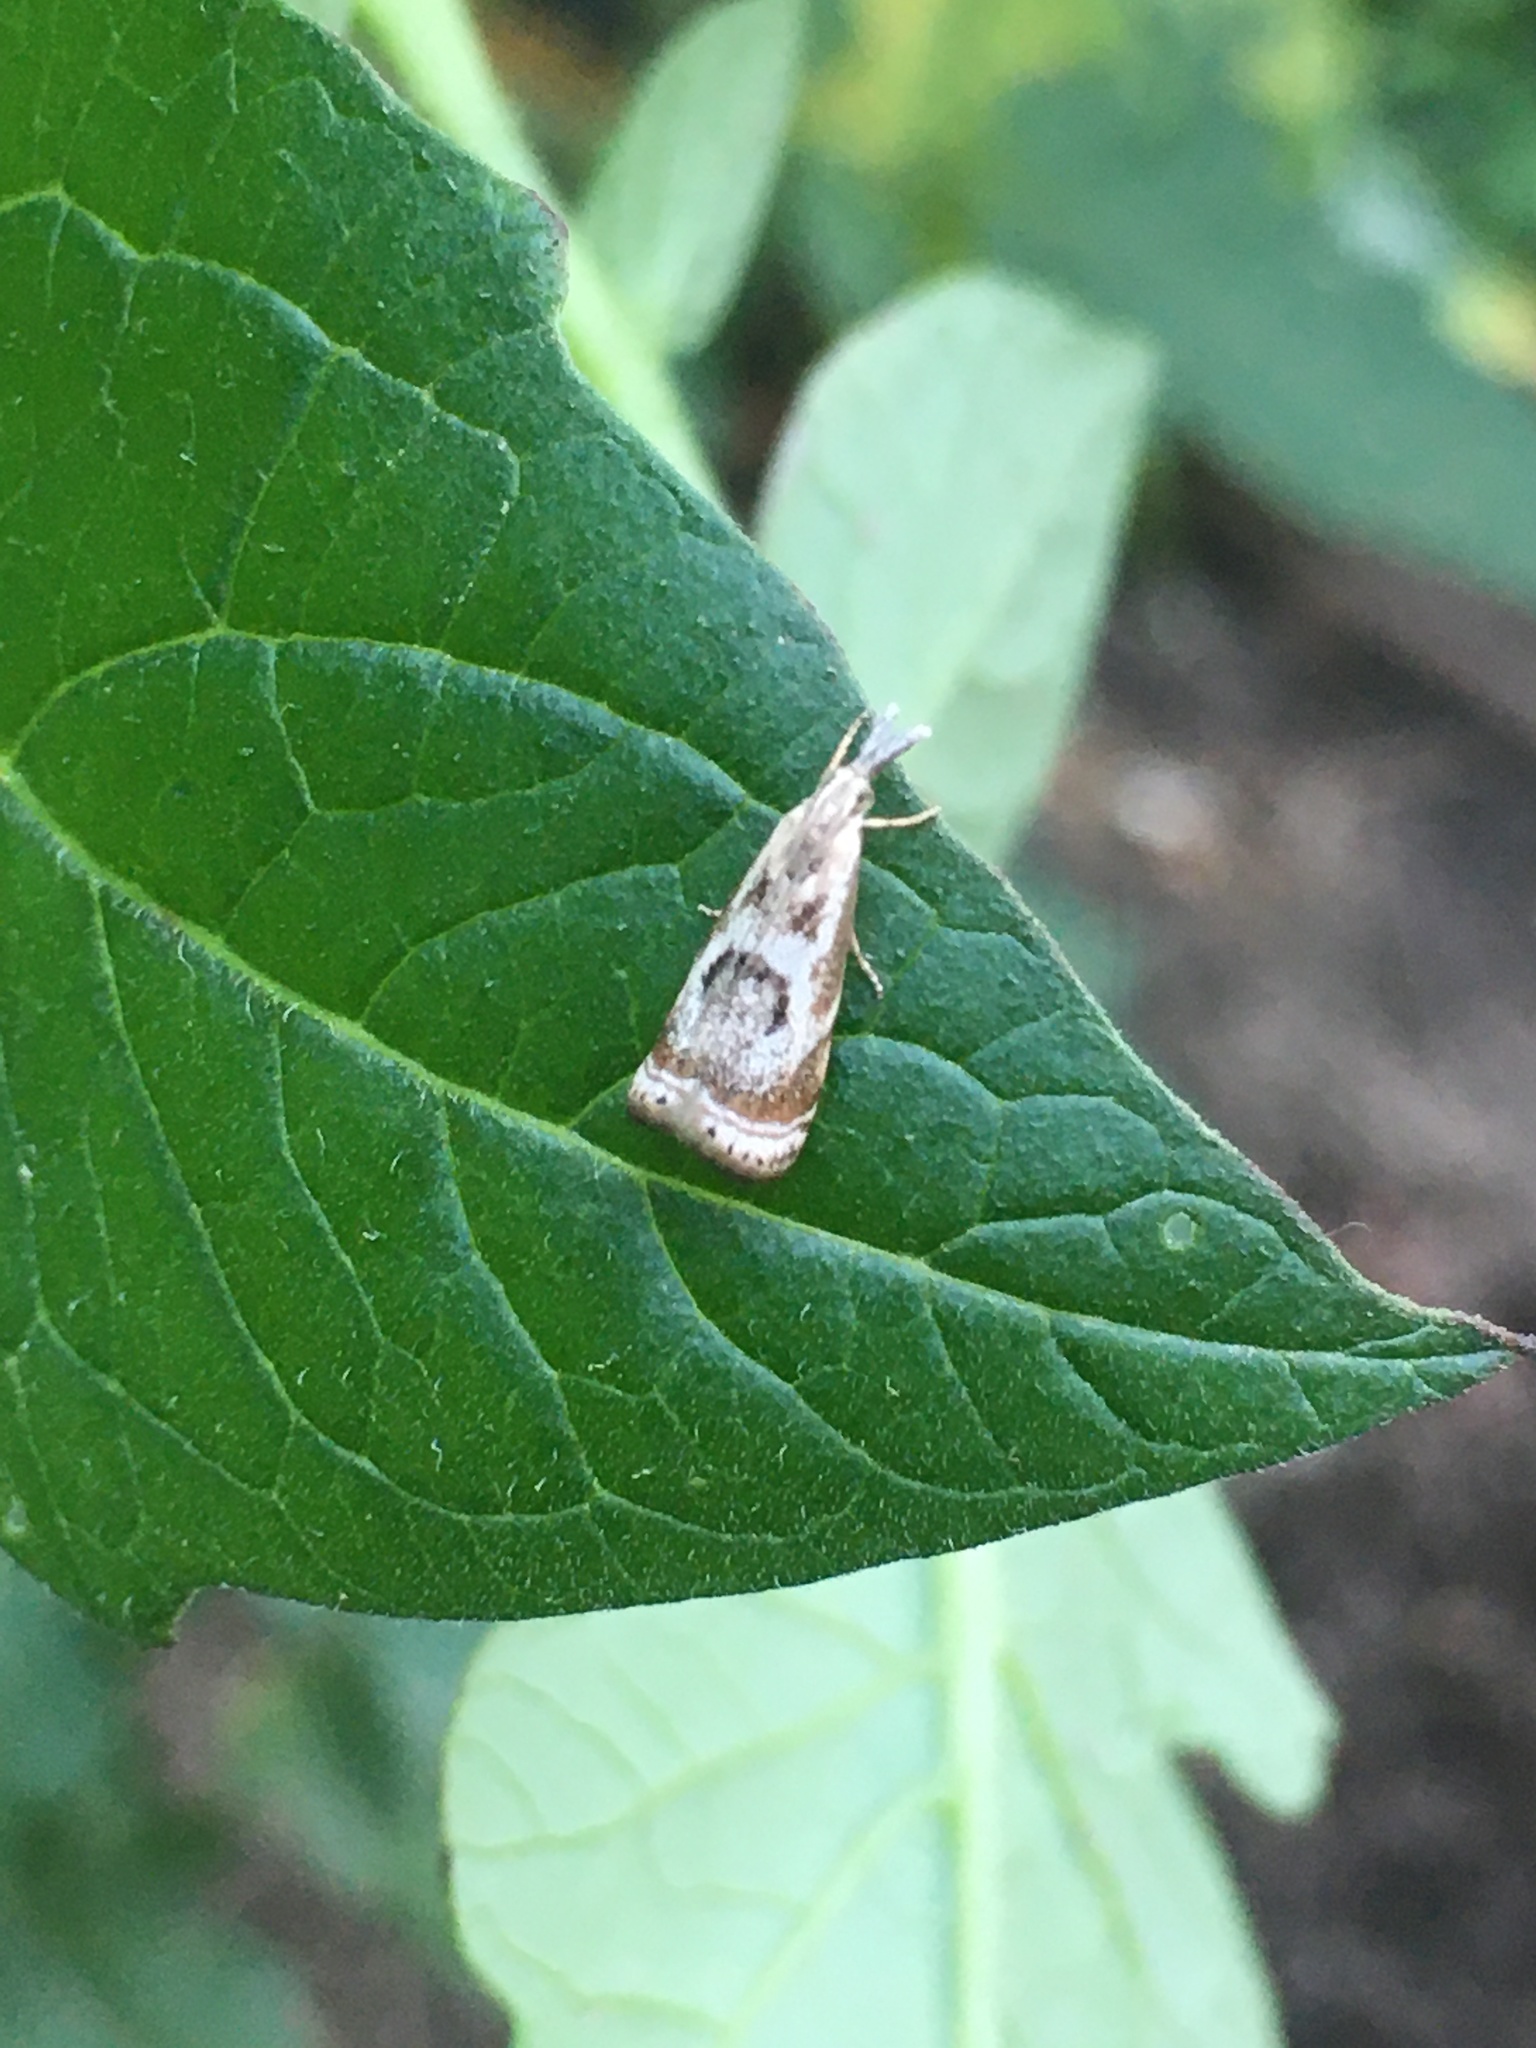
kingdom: Animalia
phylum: Arthropoda
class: Insecta
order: Lepidoptera
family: Crambidae
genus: Microcrambus
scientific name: Microcrambus elegans
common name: Elegant grass-veneer
